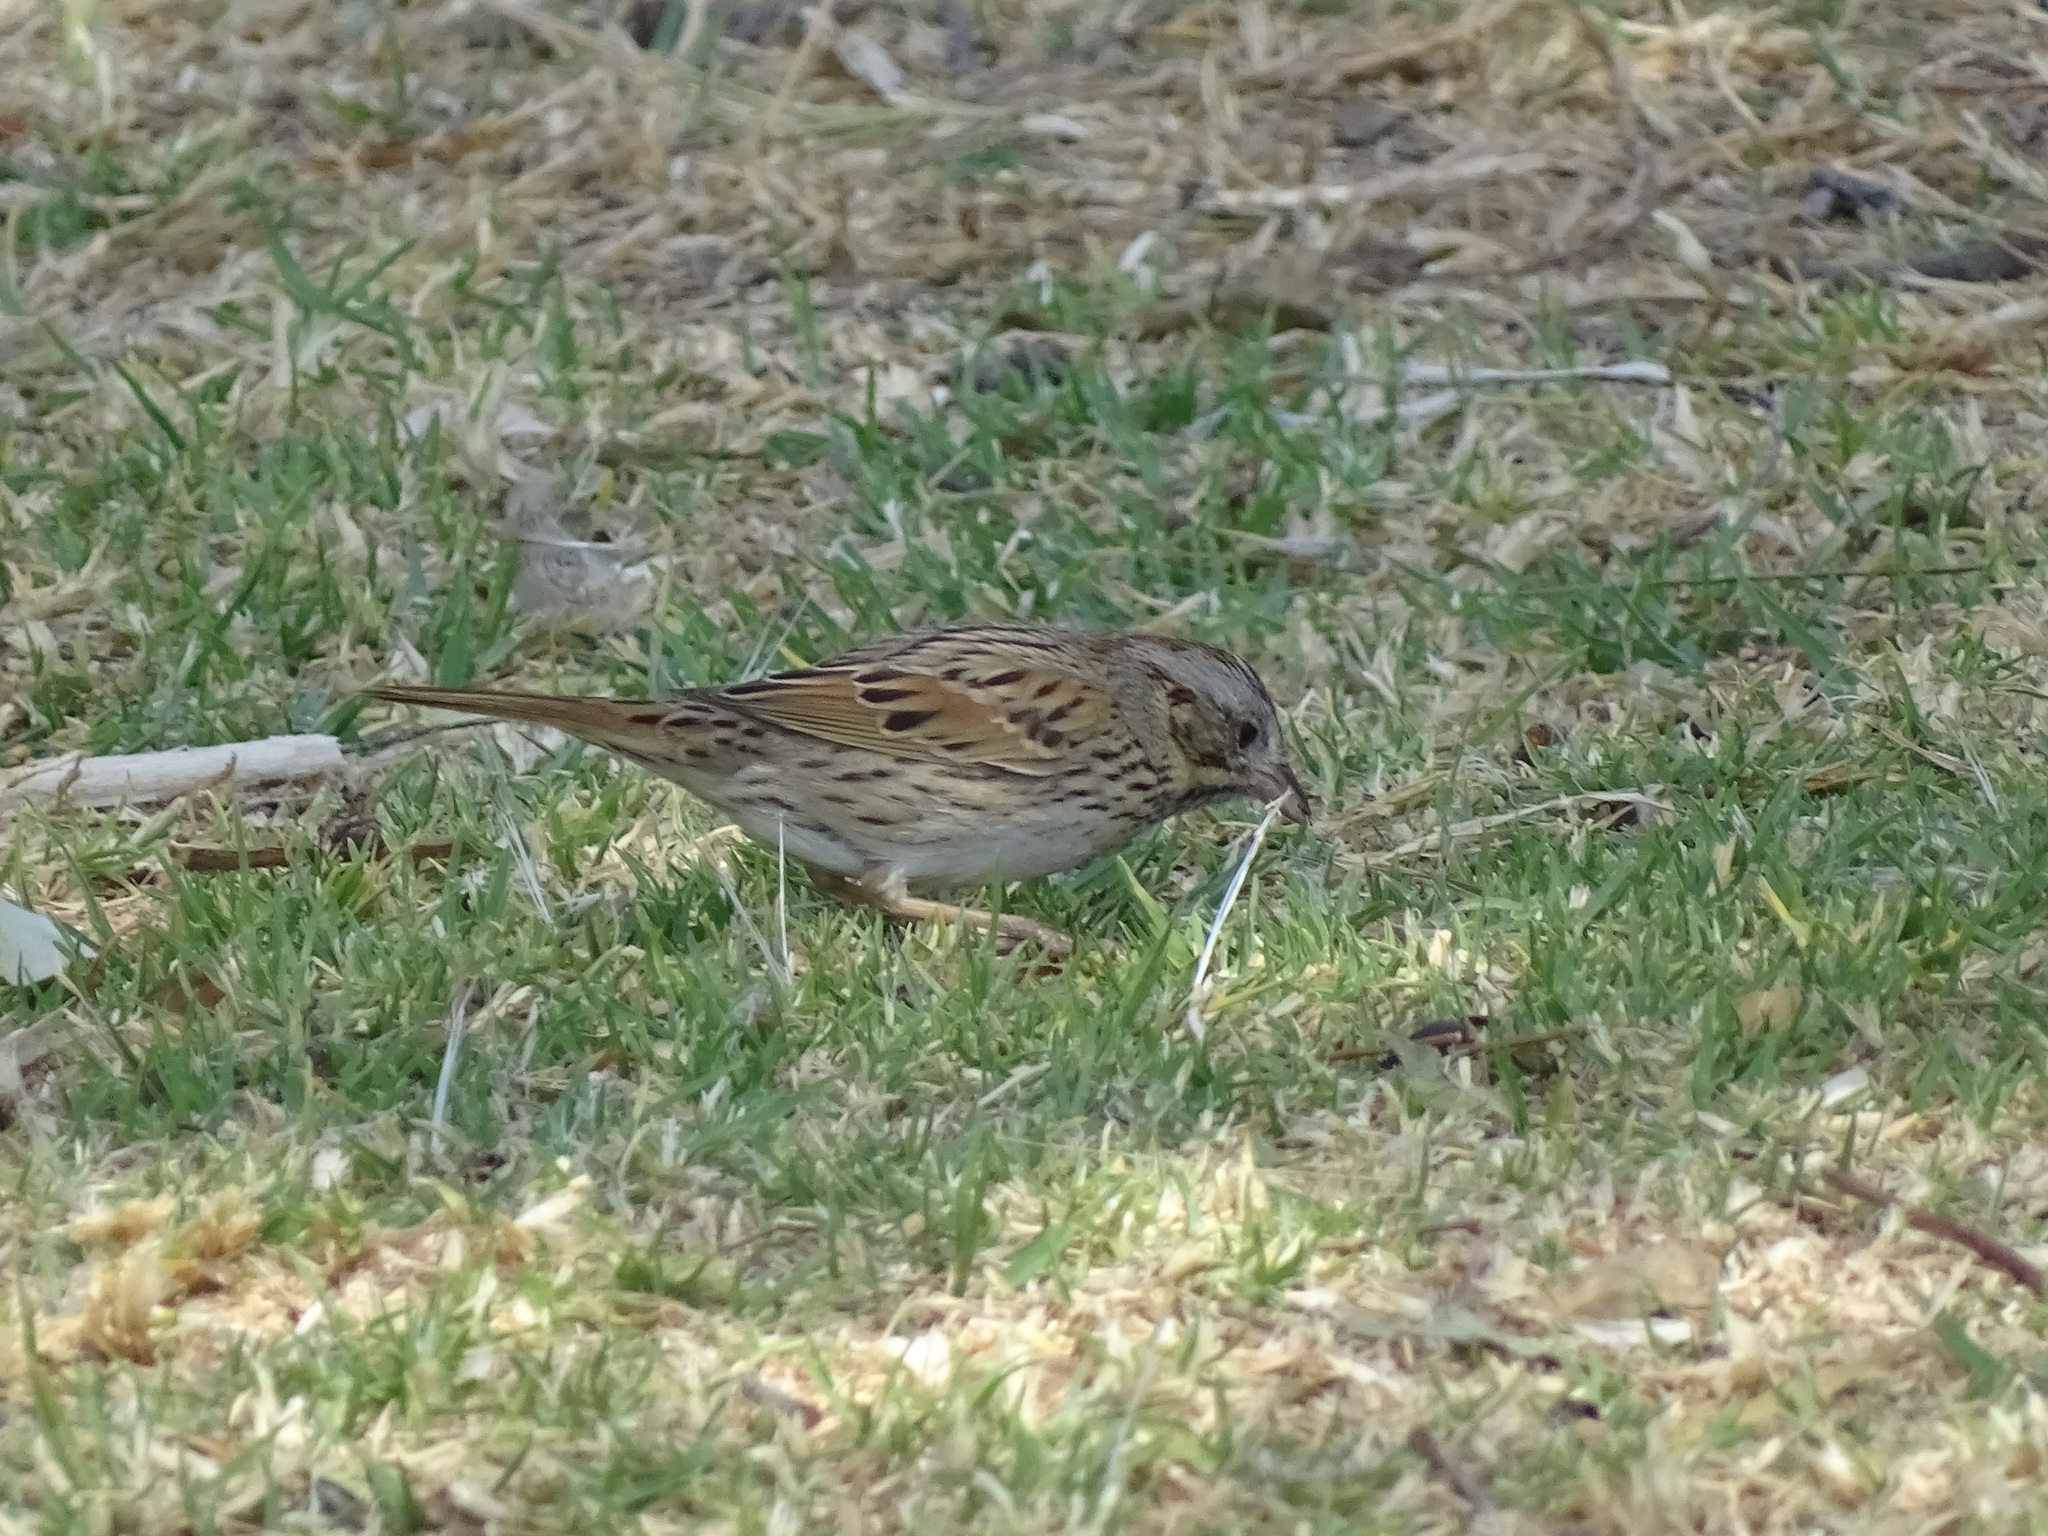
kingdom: Animalia
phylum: Chordata
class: Aves
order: Passeriformes
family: Passerellidae
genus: Melospiza
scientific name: Melospiza lincolnii
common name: Lincoln's sparrow
